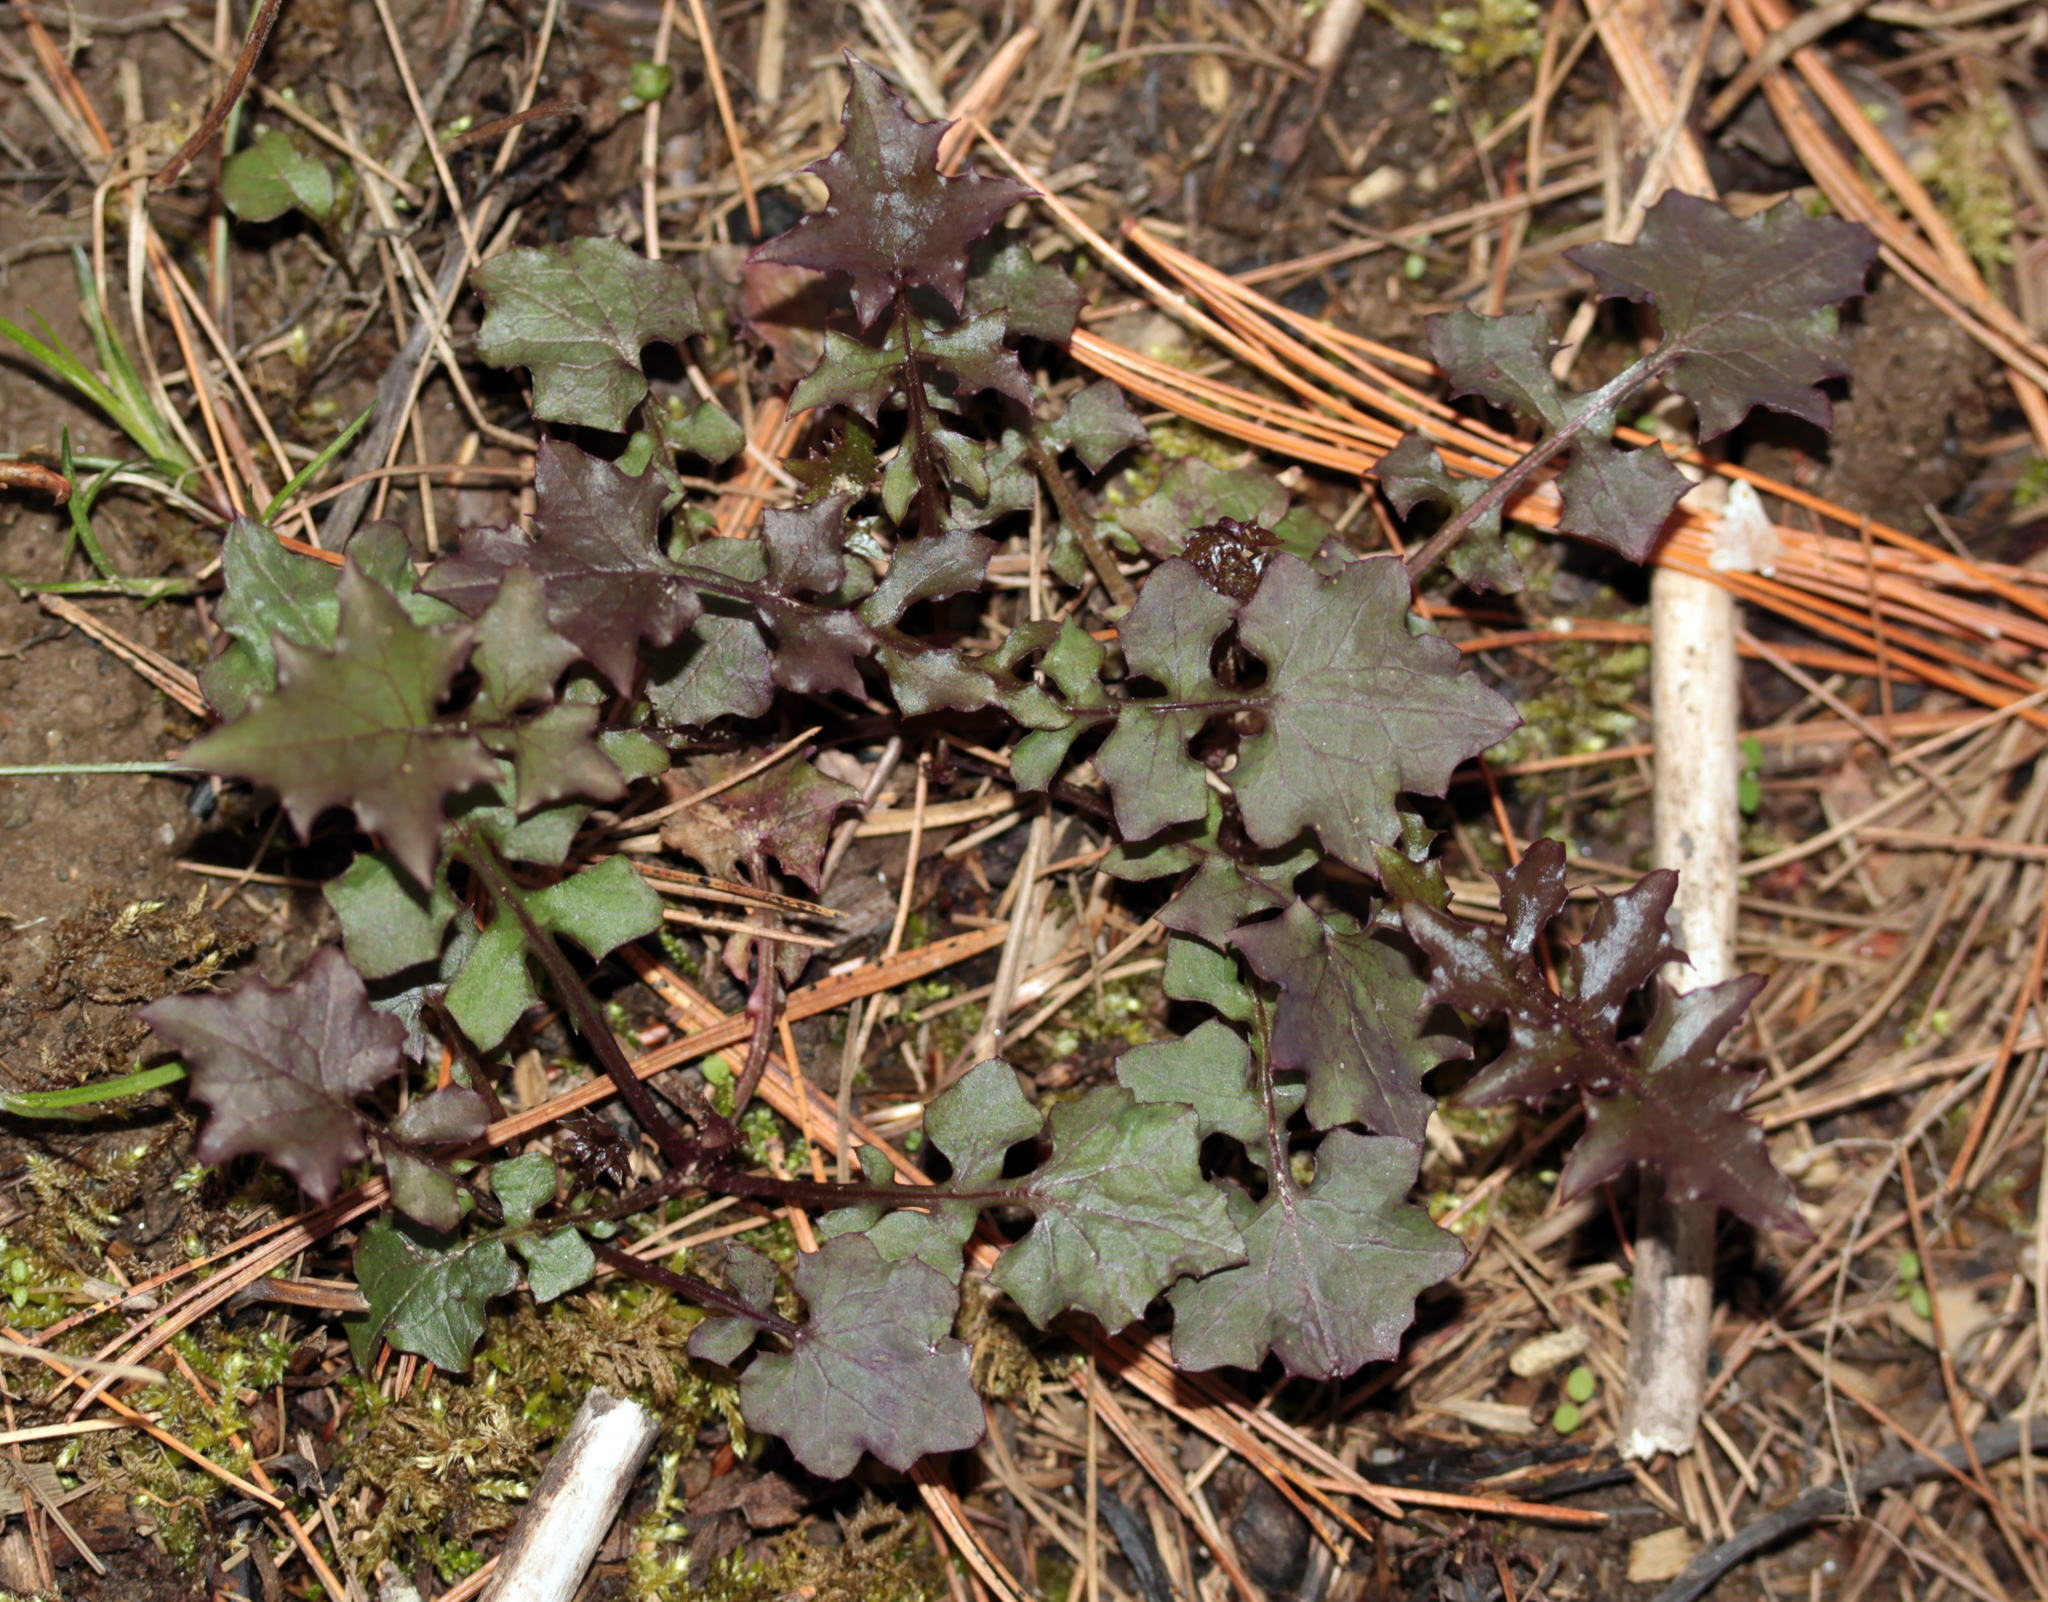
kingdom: Plantae
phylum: Tracheophyta
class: Magnoliopsida
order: Asterales
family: Asteraceae
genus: Mycelis
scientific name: Mycelis muralis
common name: Wall lettuce
